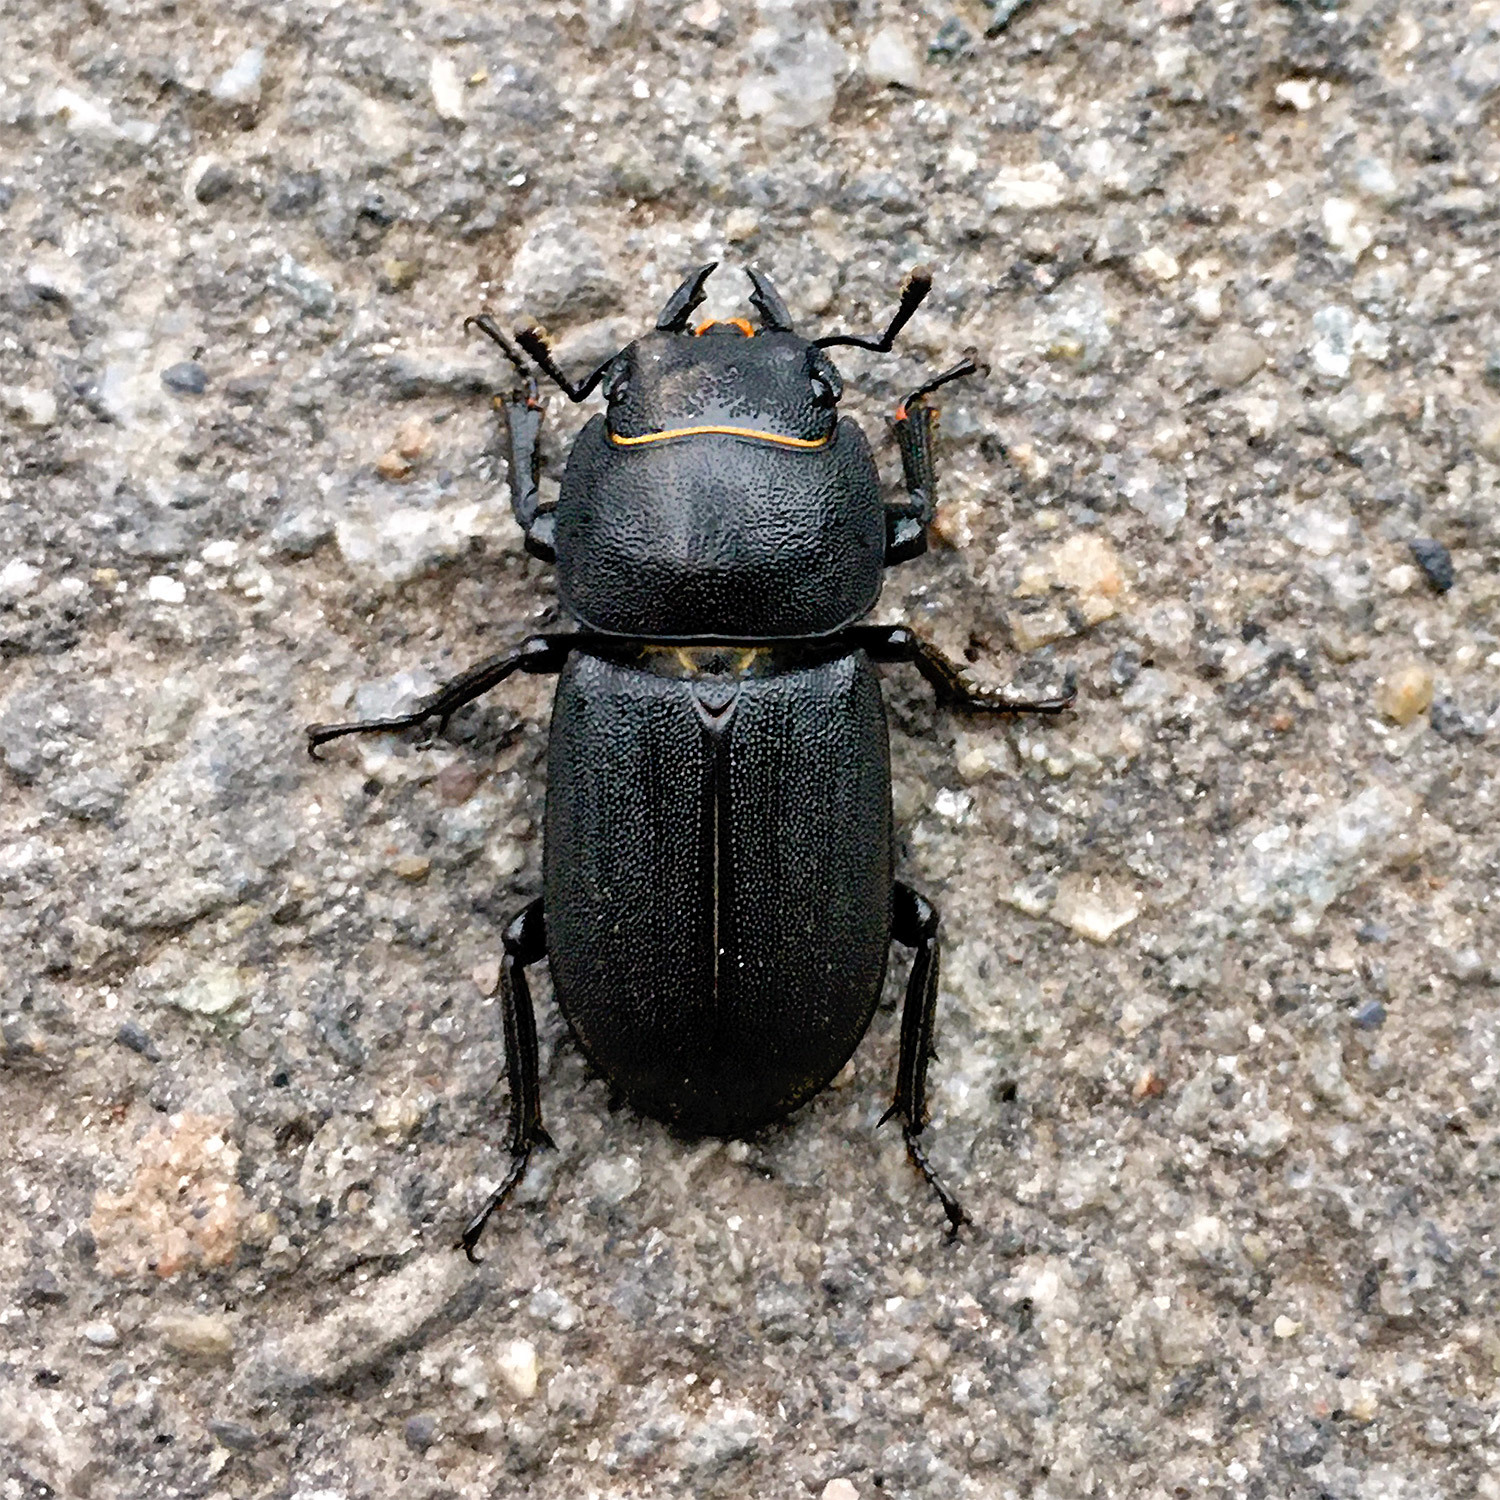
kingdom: Animalia
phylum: Arthropoda
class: Insecta
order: Coleoptera
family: Lucanidae
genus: Dorcus
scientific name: Dorcus parallelipipedus
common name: Lesser stag beetle
